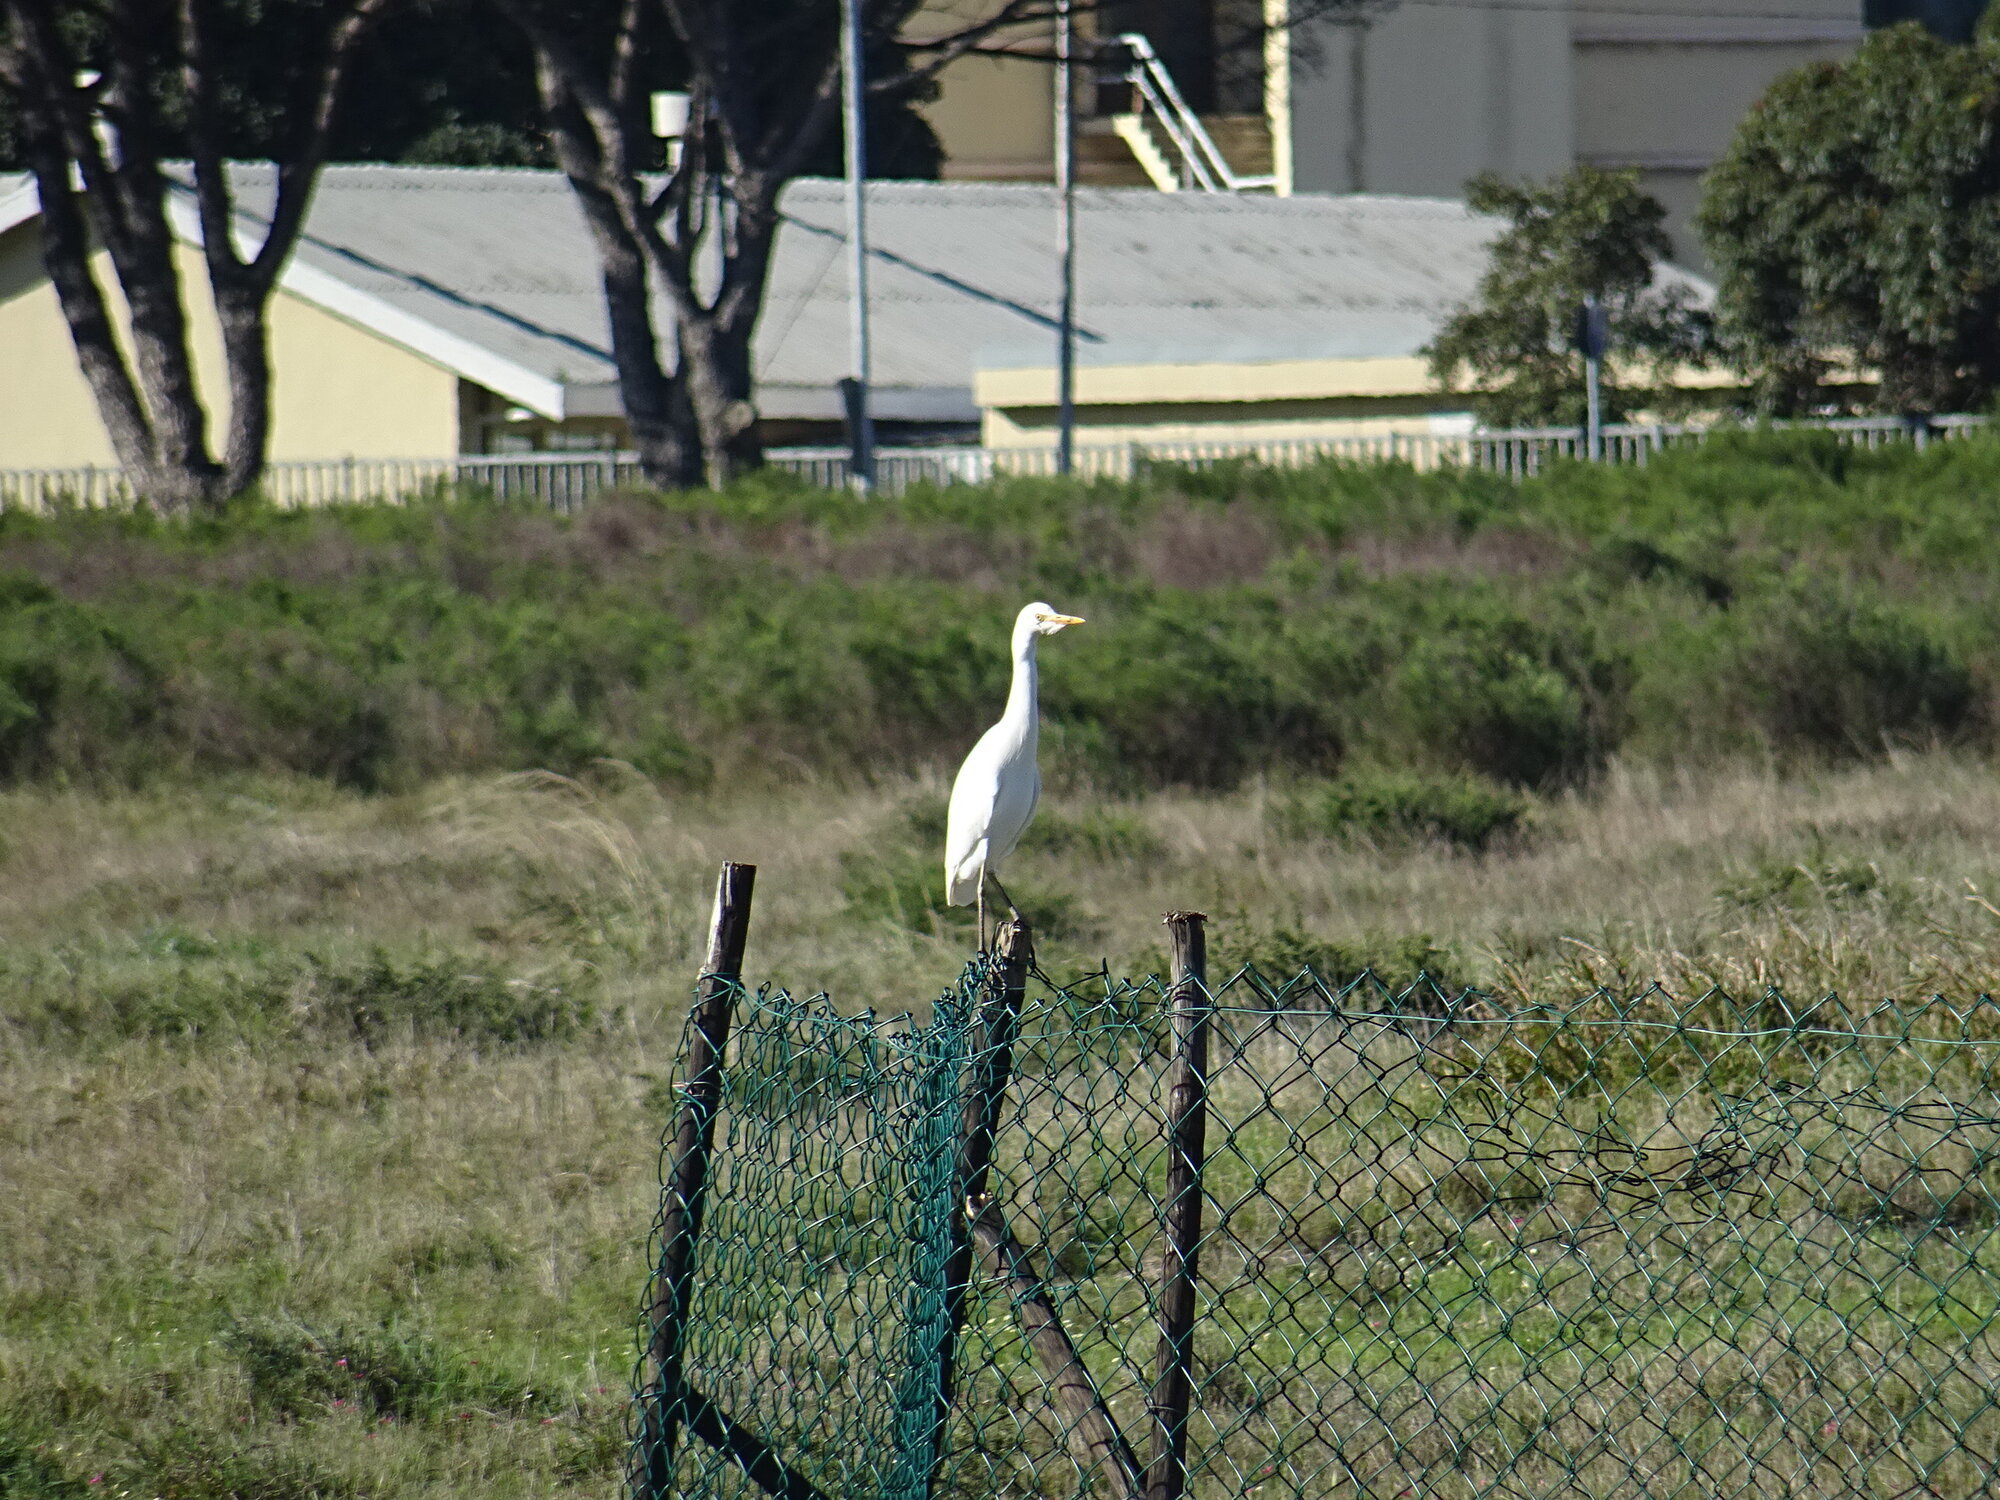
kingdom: Animalia
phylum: Chordata
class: Aves
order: Pelecaniformes
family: Ardeidae
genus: Bubulcus
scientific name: Bubulcus ibis
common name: Cattle egret
